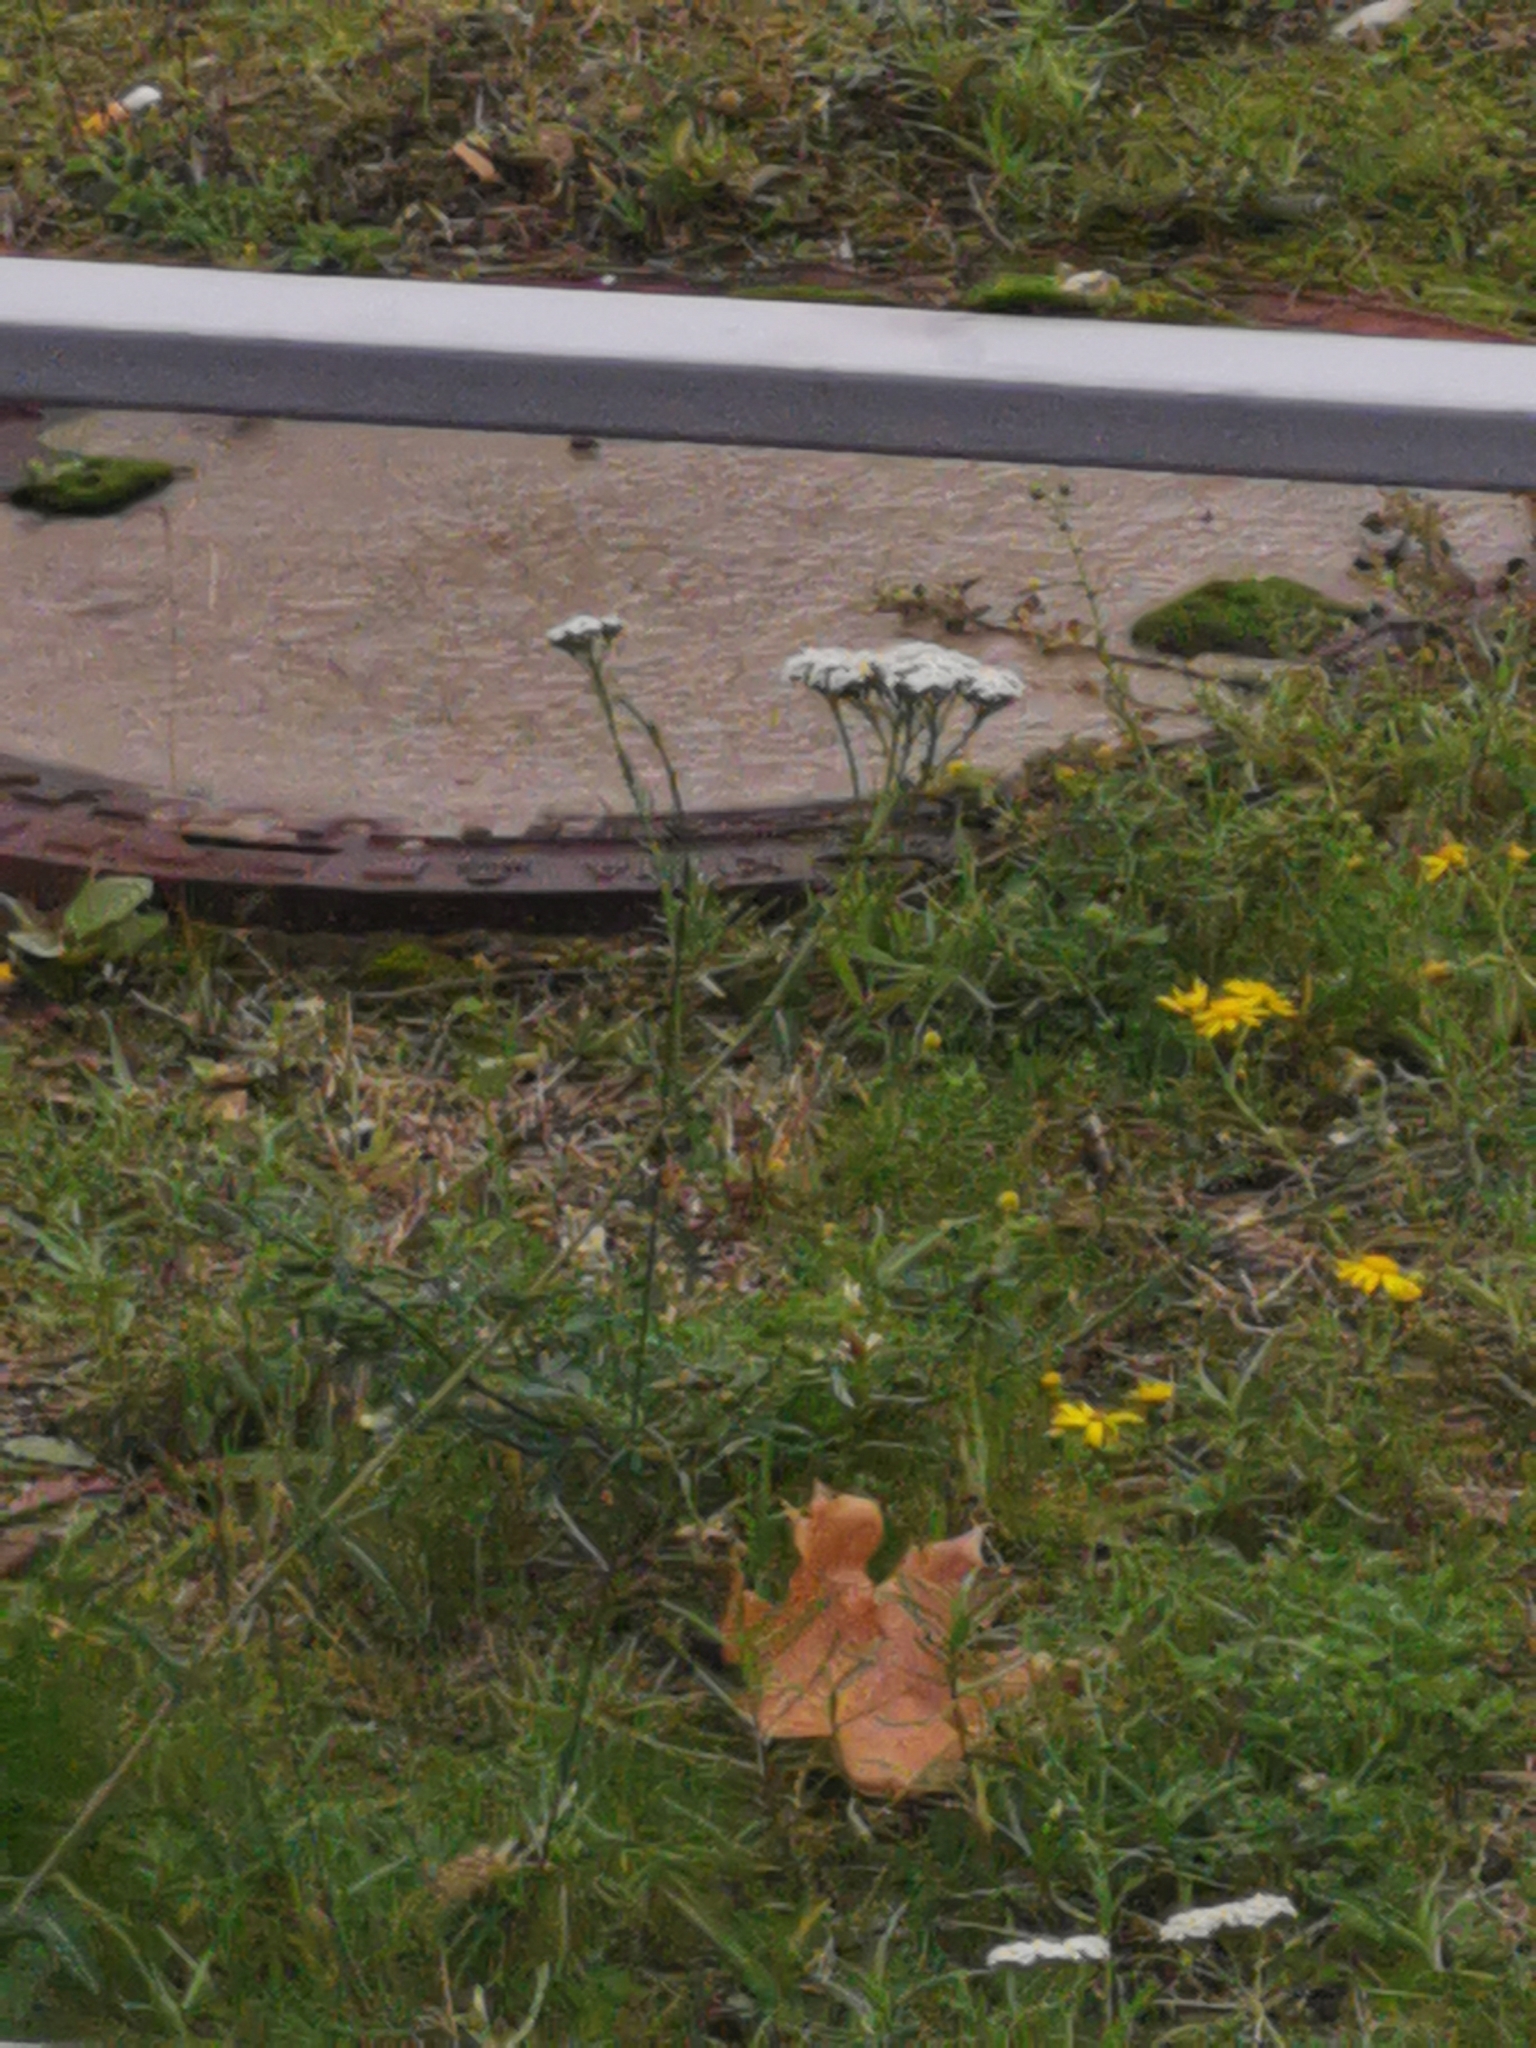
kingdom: Plantae
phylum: Tracheophyta
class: Magnoliopsida
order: Asterales
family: Asteraceae
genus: Achillea
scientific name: Achillea millefolium
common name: Yarrow
